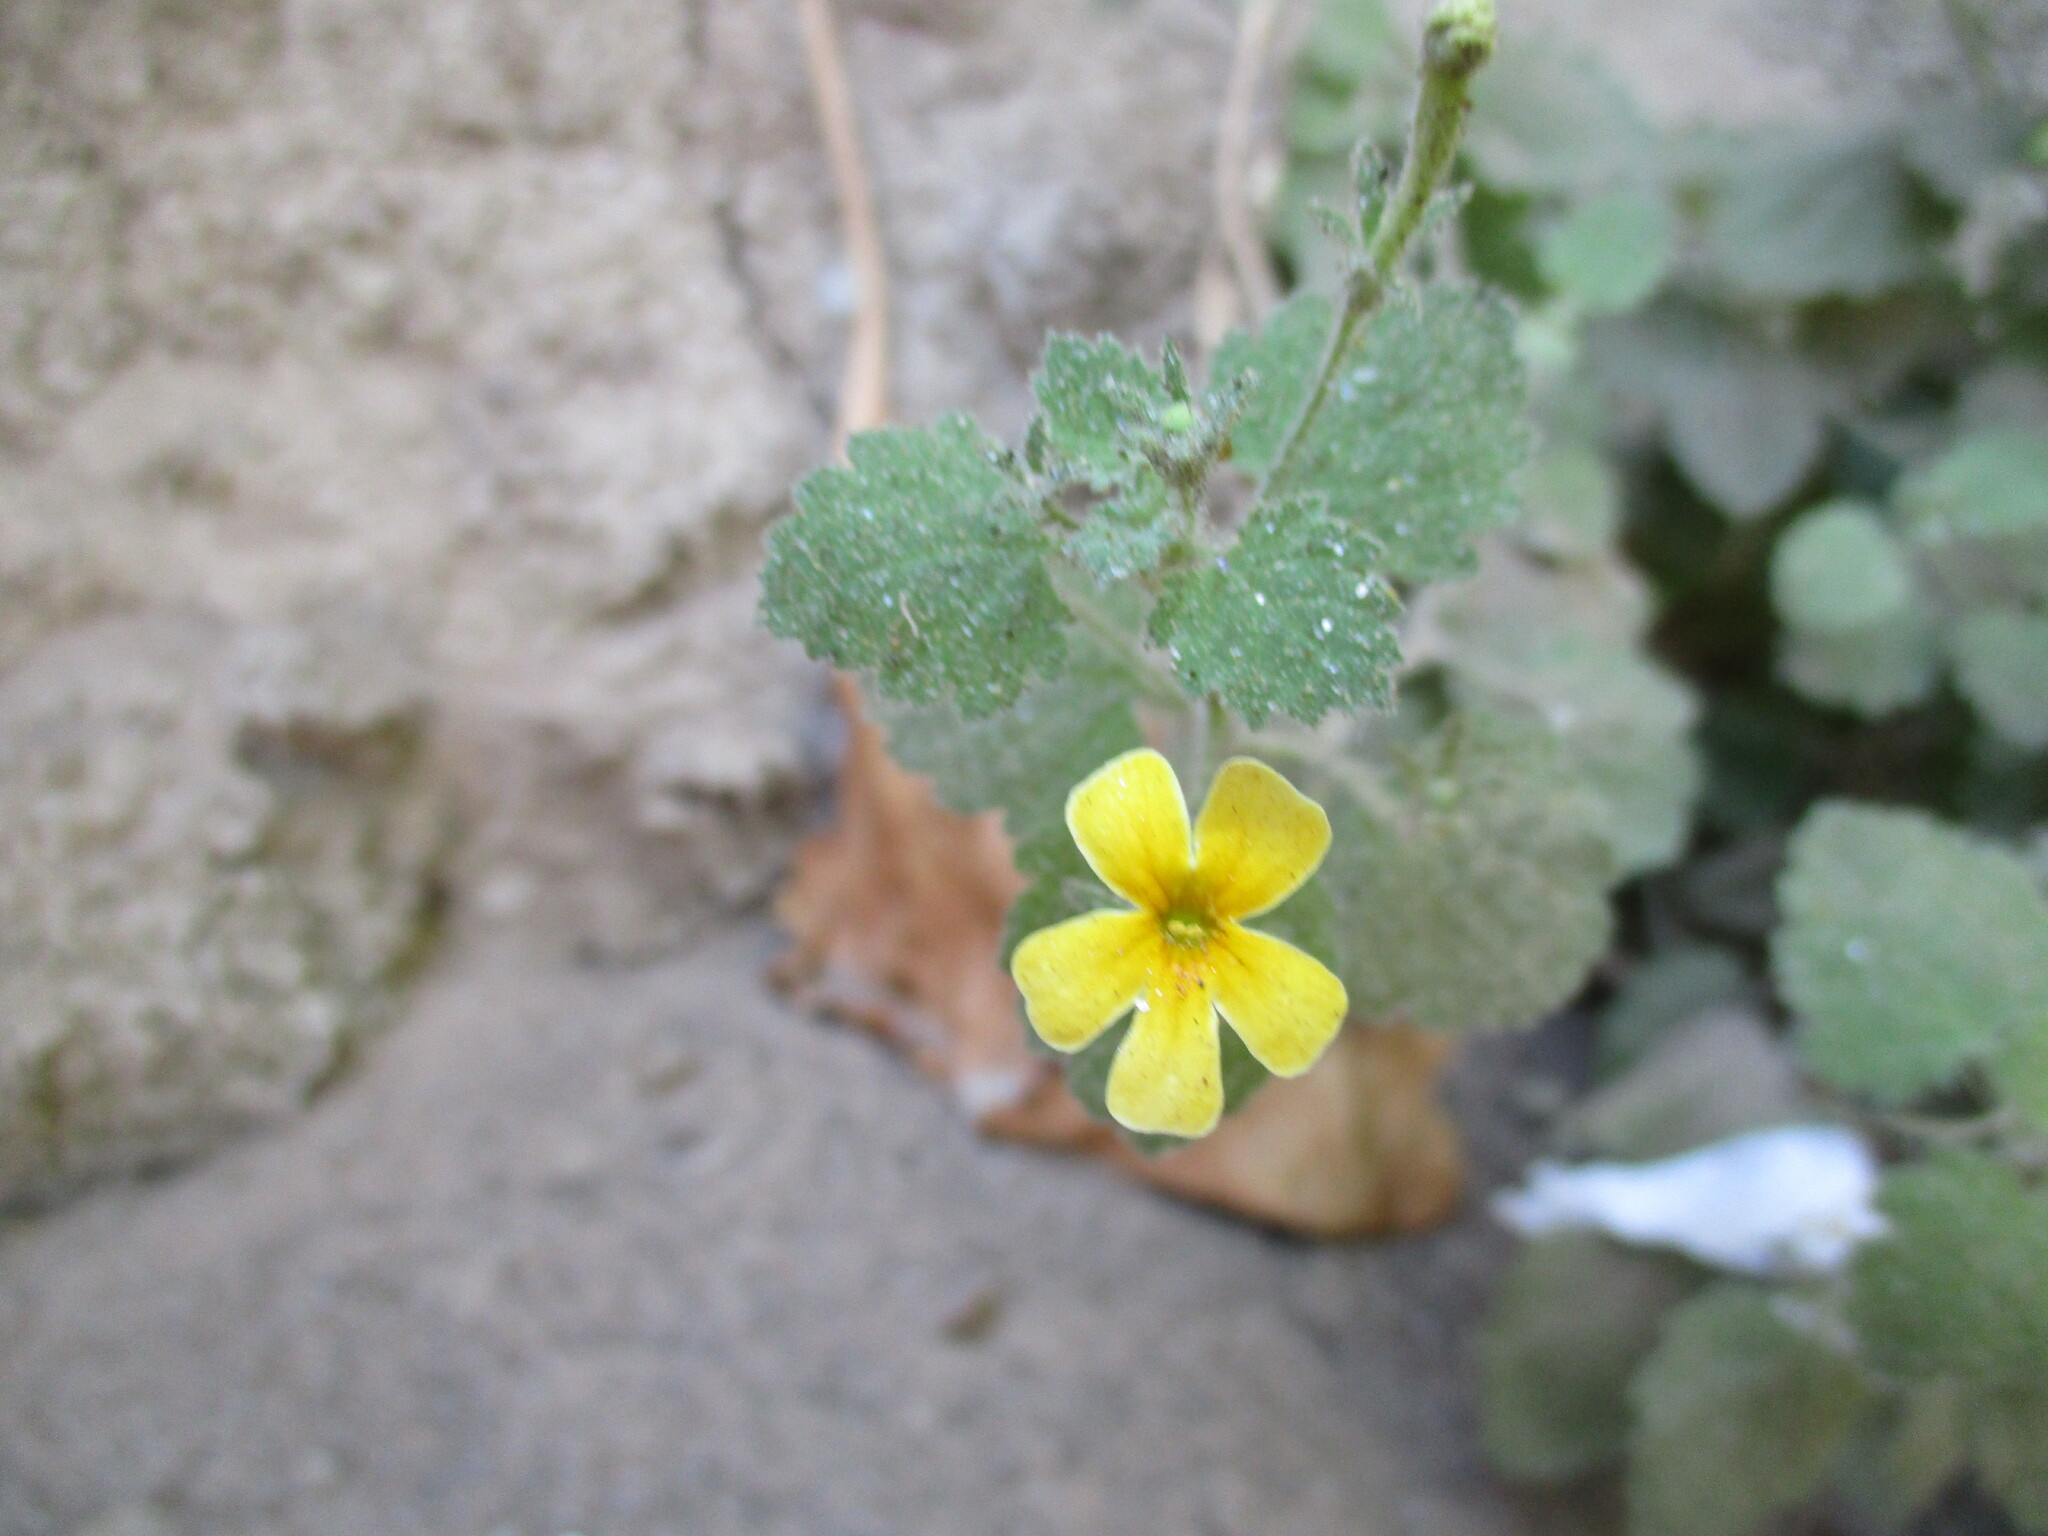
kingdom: Plantae
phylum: Tracheophyta
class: Magnoliopsida
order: Lamiales
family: Scrophulariaceae
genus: Jamesbrittenia
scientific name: Jamesbrittenia fleckii
